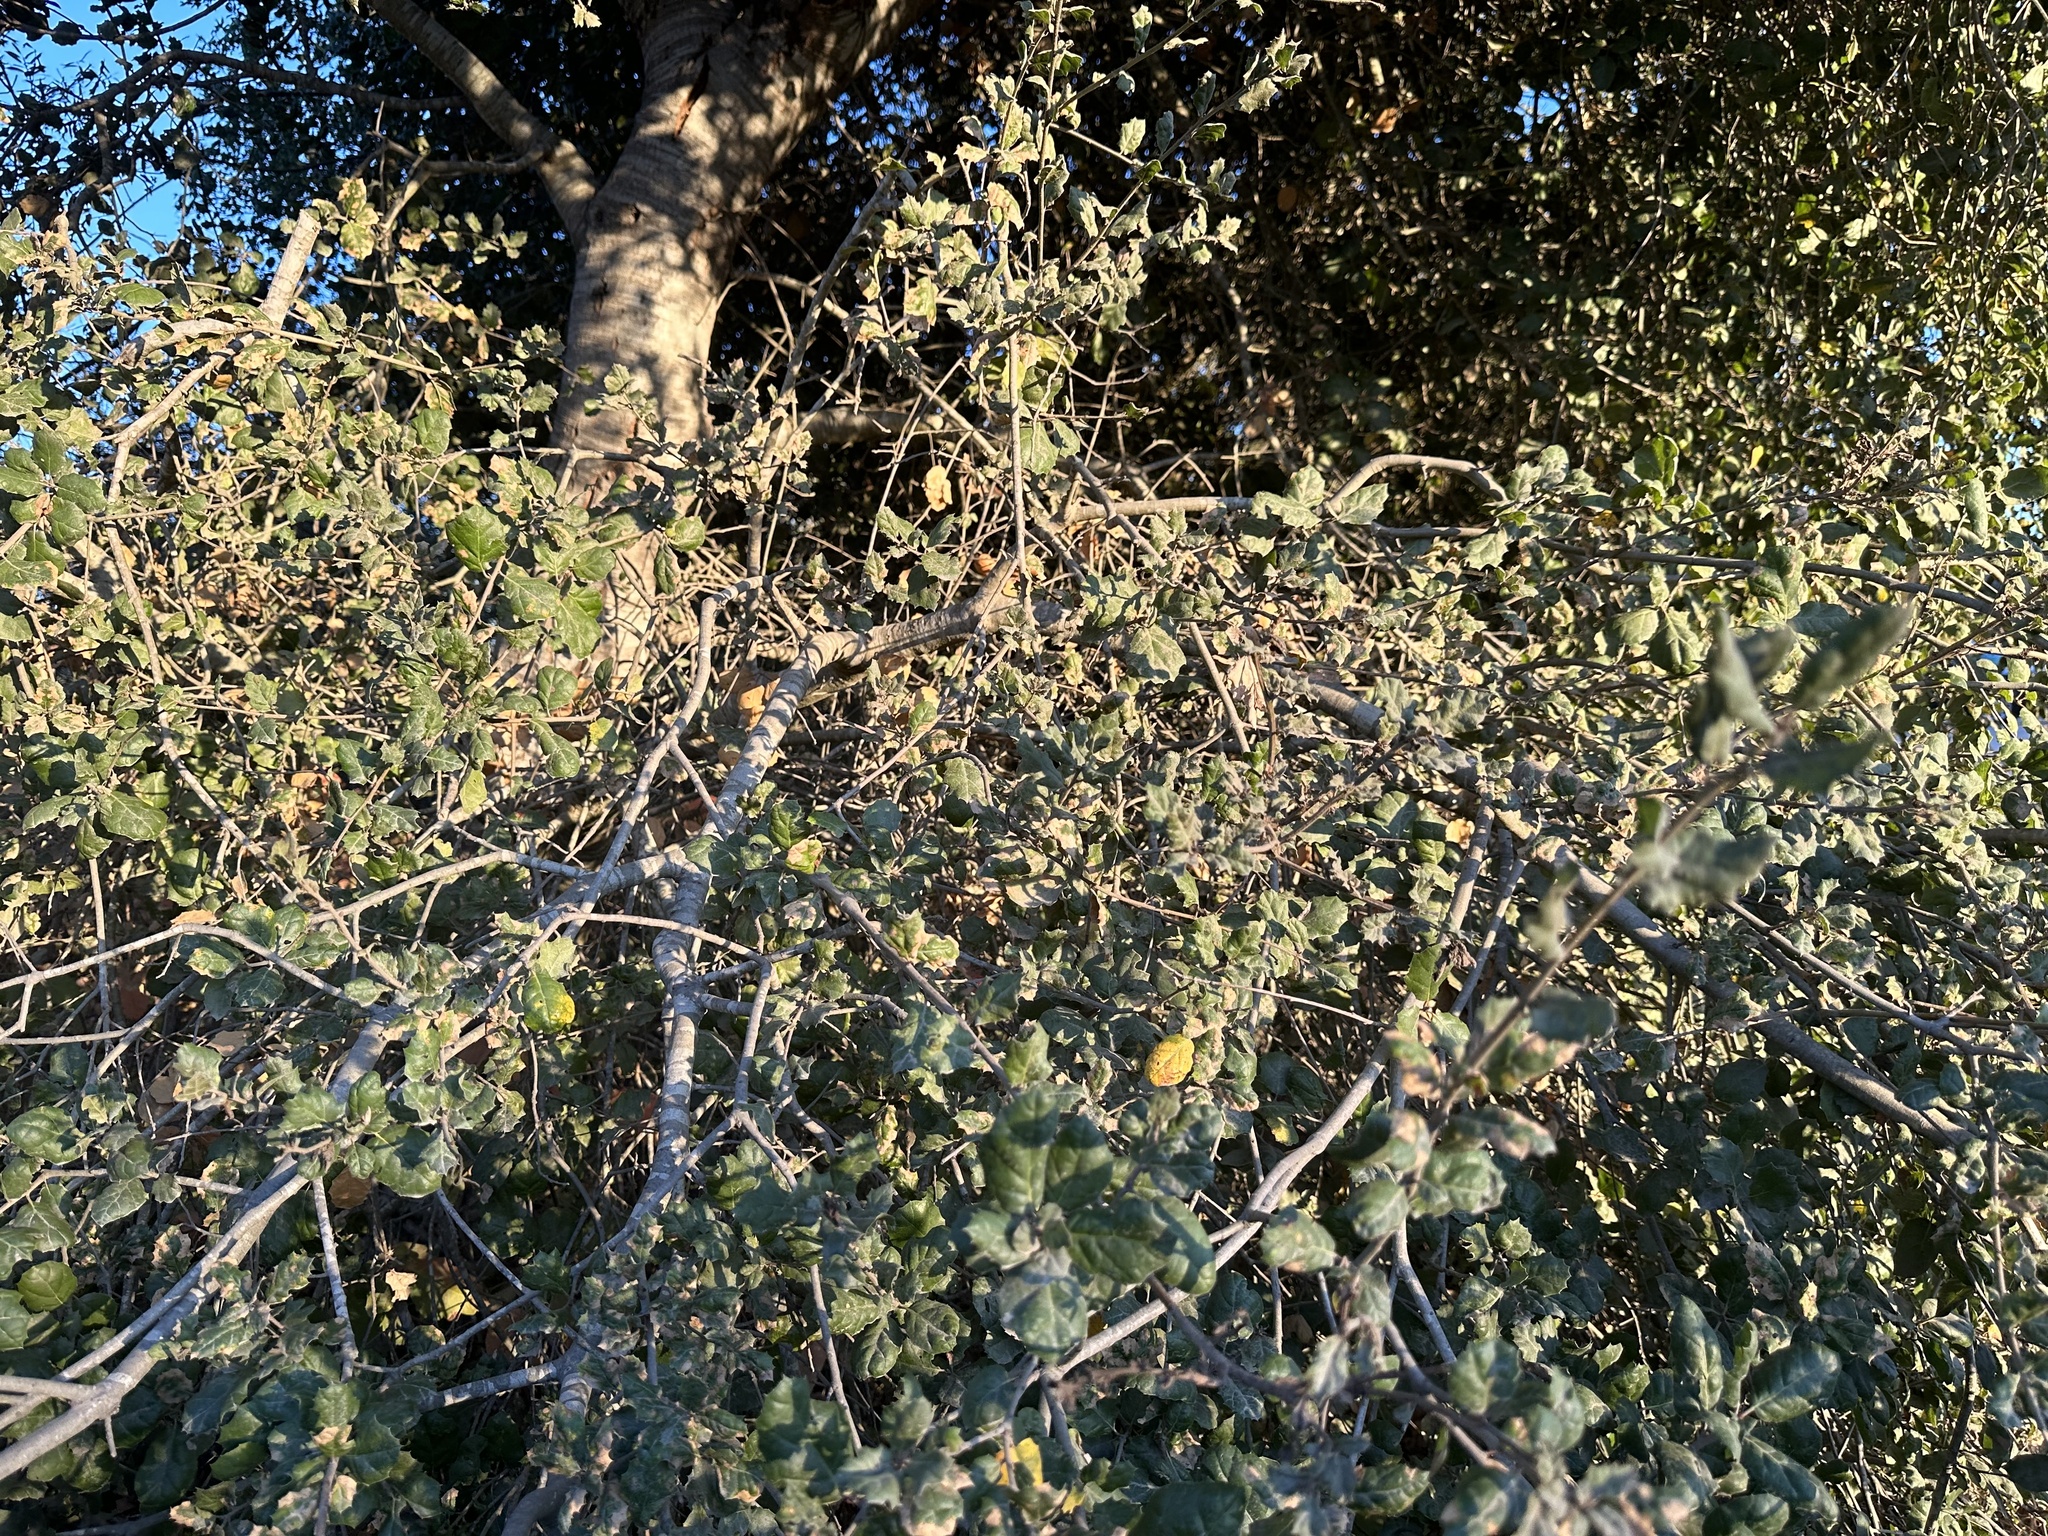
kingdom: Plantae
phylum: Tracheophyta
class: Magnoliopsida
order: Fagales
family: Fagaceae
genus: Quercus
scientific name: Quercus agrifolia
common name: California live oak
